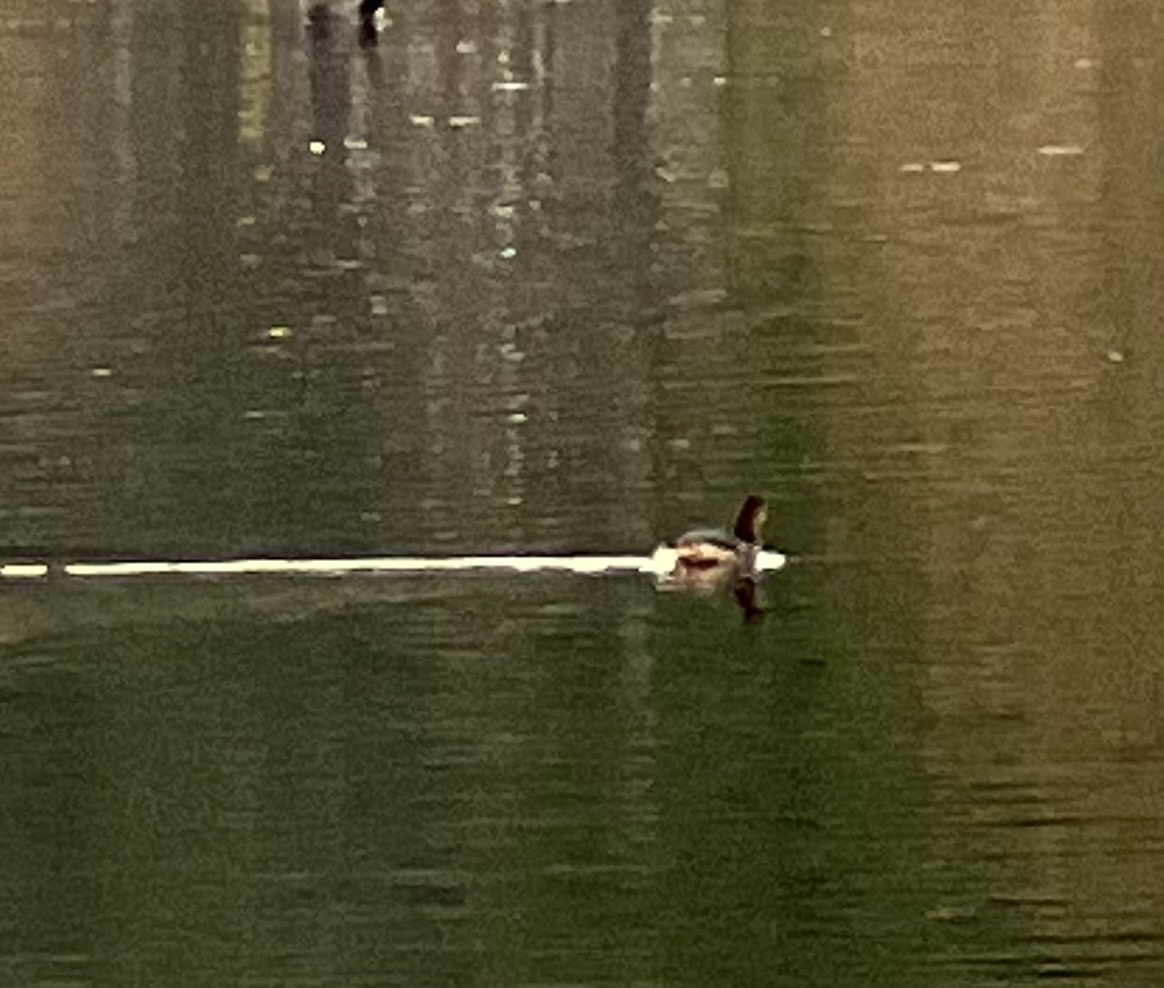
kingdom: Animalia
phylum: Chordata
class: Aves
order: Podicipediformes
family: Podicipedidae
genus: Podilymbus
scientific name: Podilymbus podiceps
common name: Pied-billed grebe
